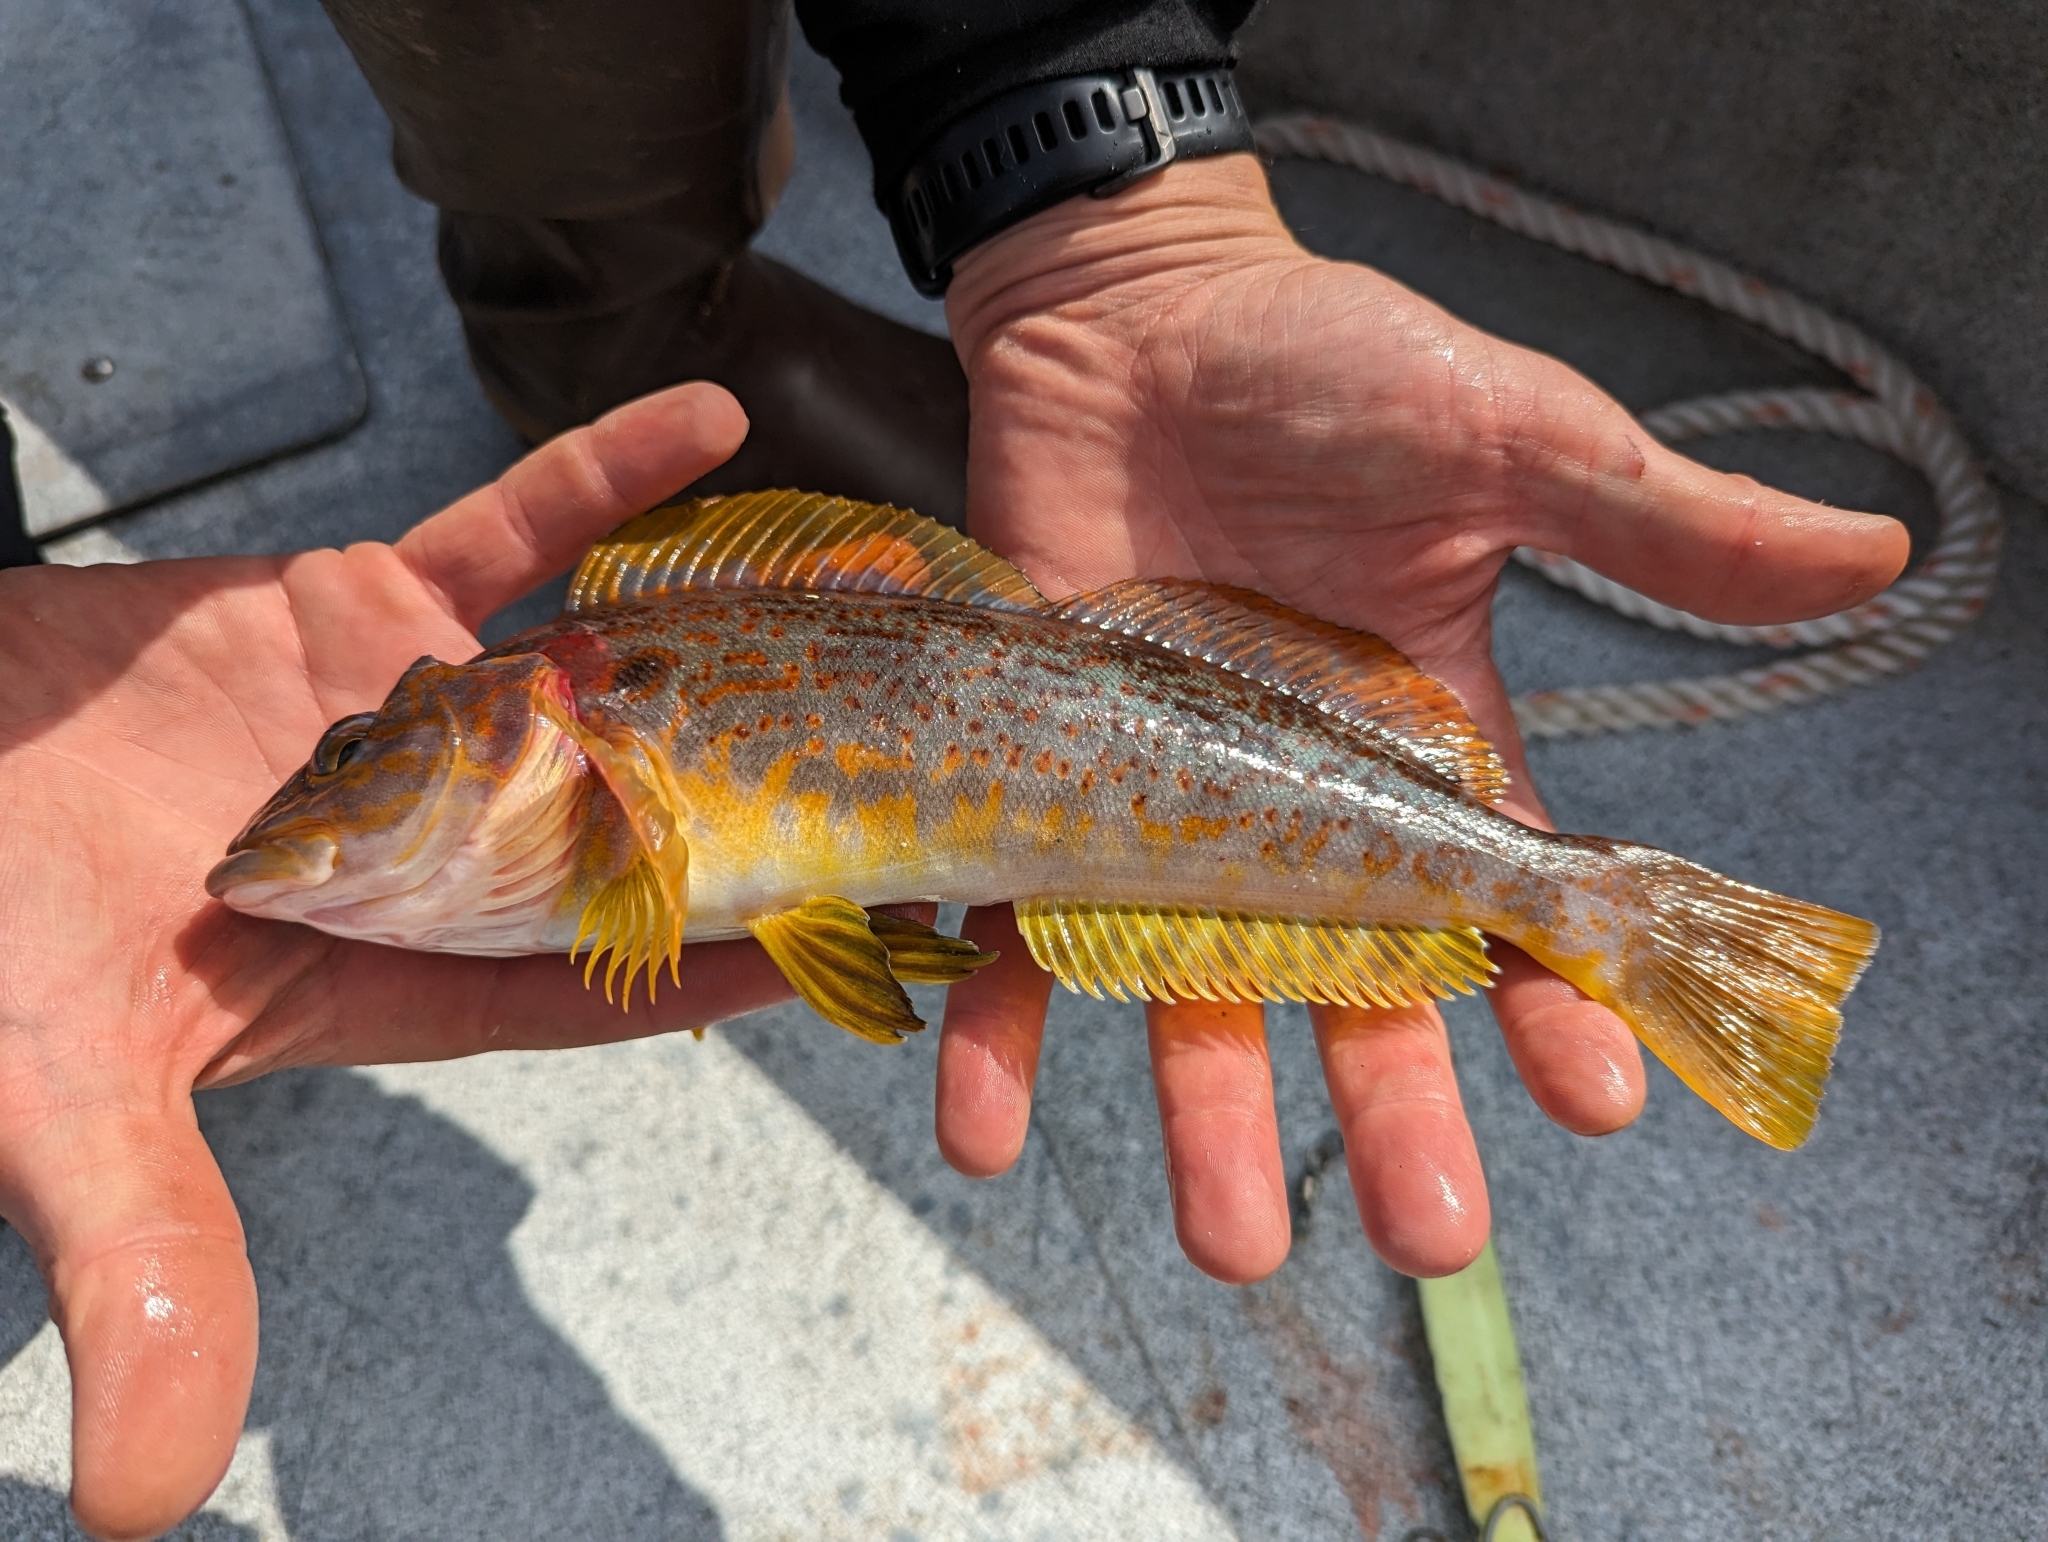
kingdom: Animalia
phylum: Chordata
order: Scorpaeniformes
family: Hexagrammidae
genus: Hexagrammos
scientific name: Hexagrammos decagrammus
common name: Kelp greenling
